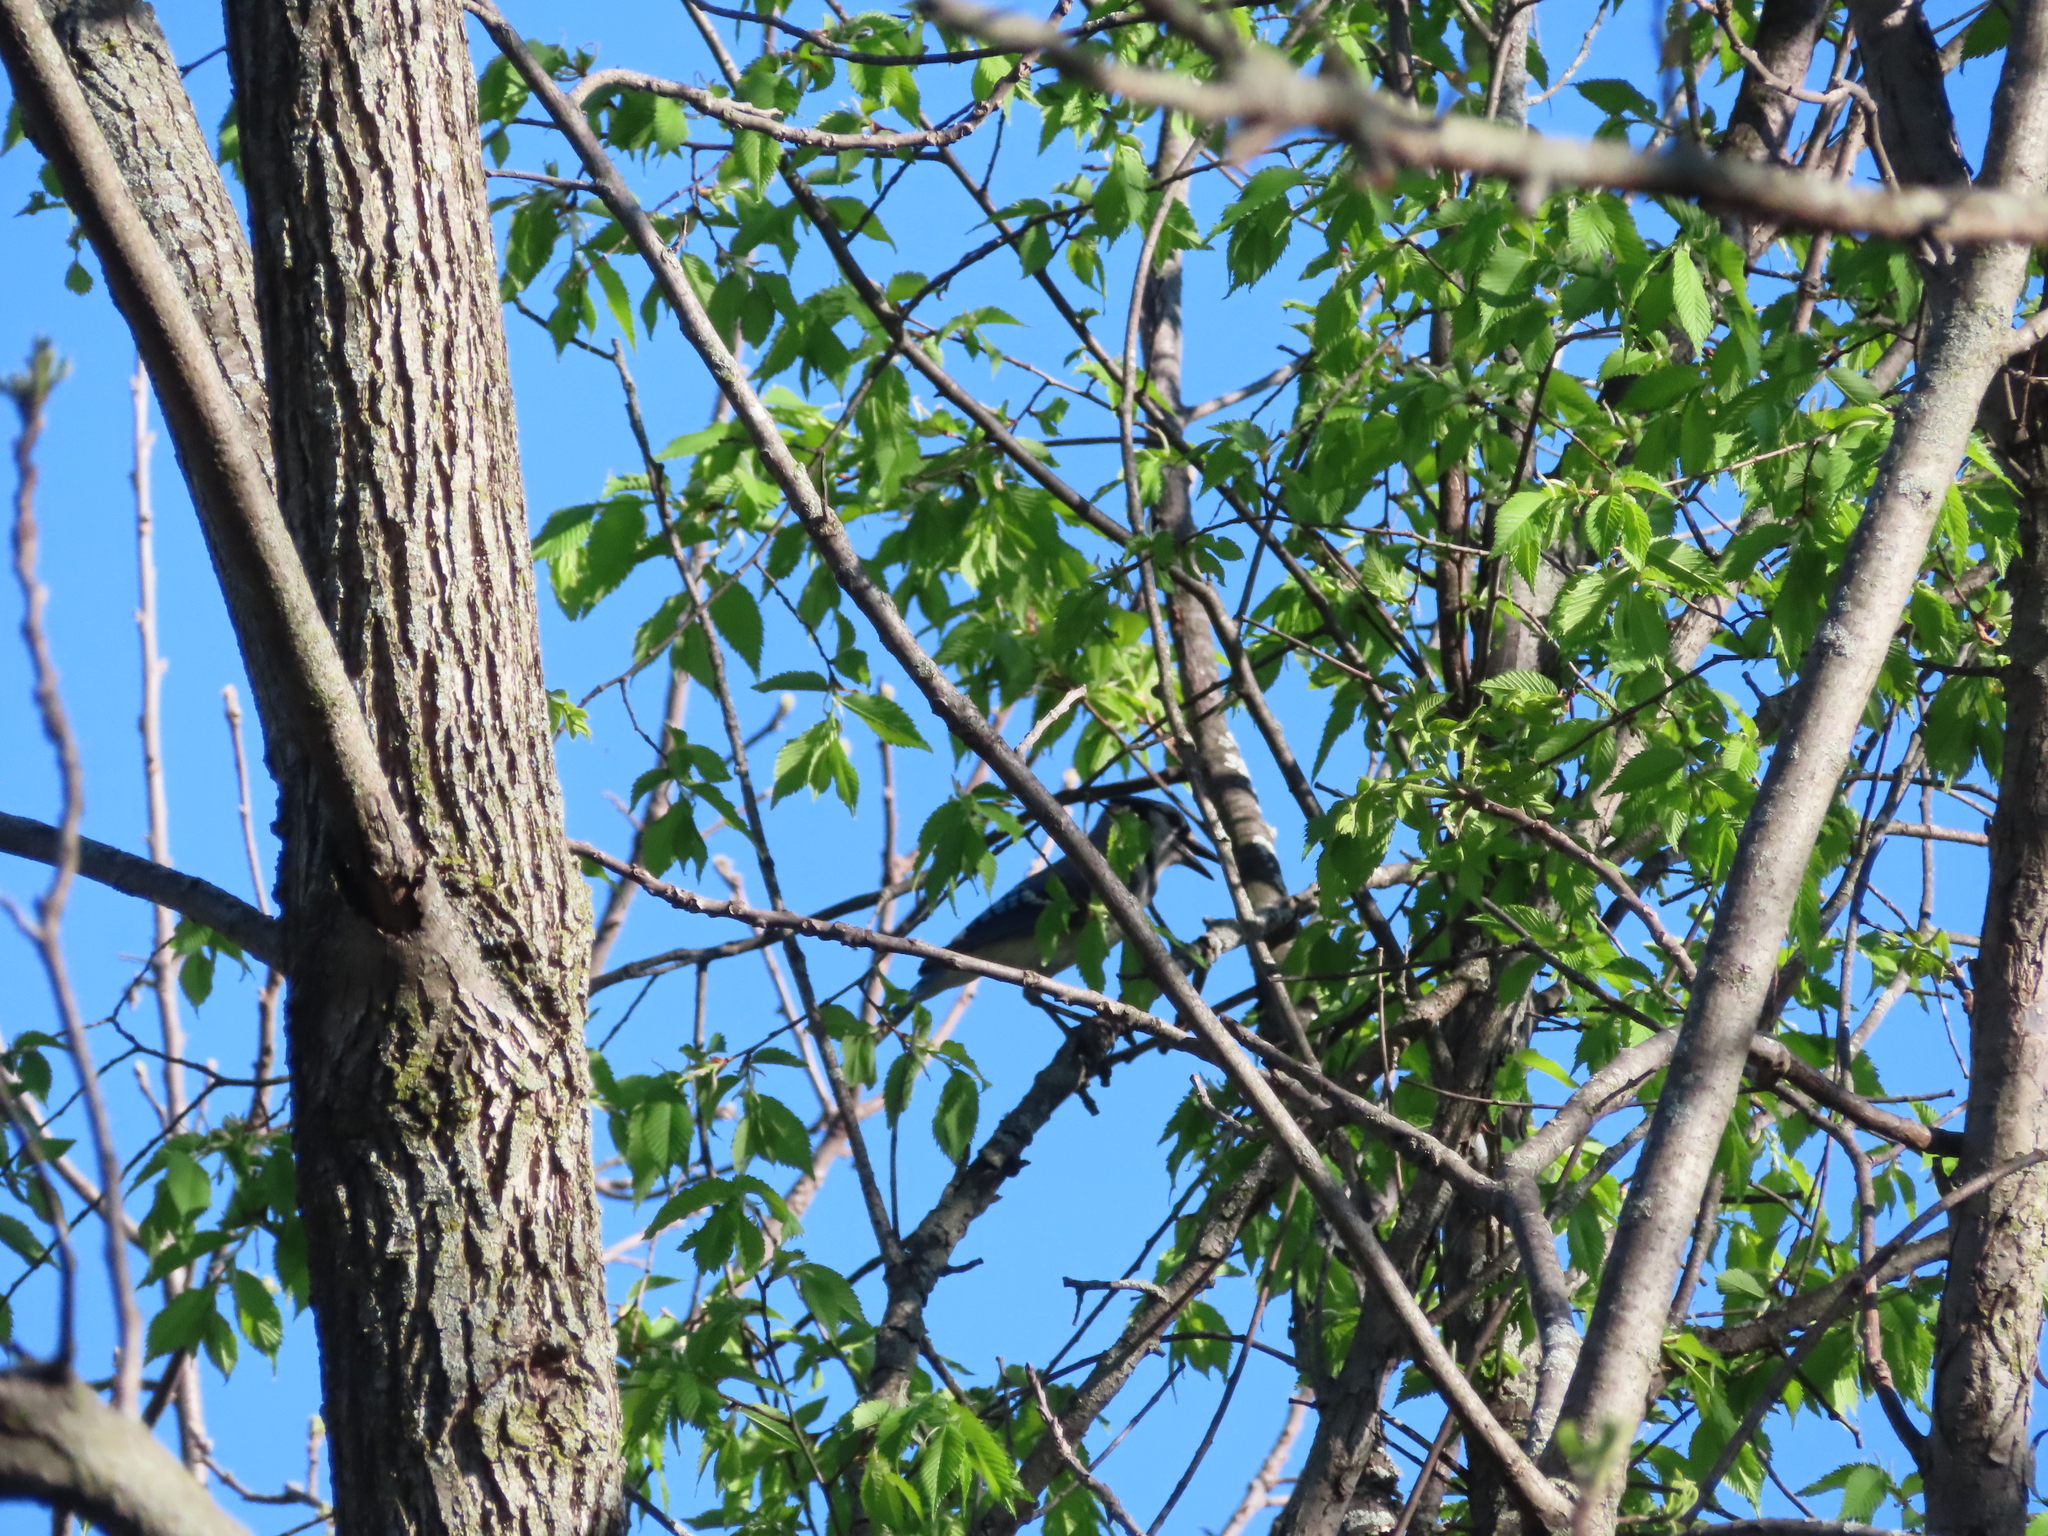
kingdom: Animalia
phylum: Chordata
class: Aves
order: Passeriformes
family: Corvidae
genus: Cyanocitta
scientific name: Cyanocitta cristata
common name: Blue jay
